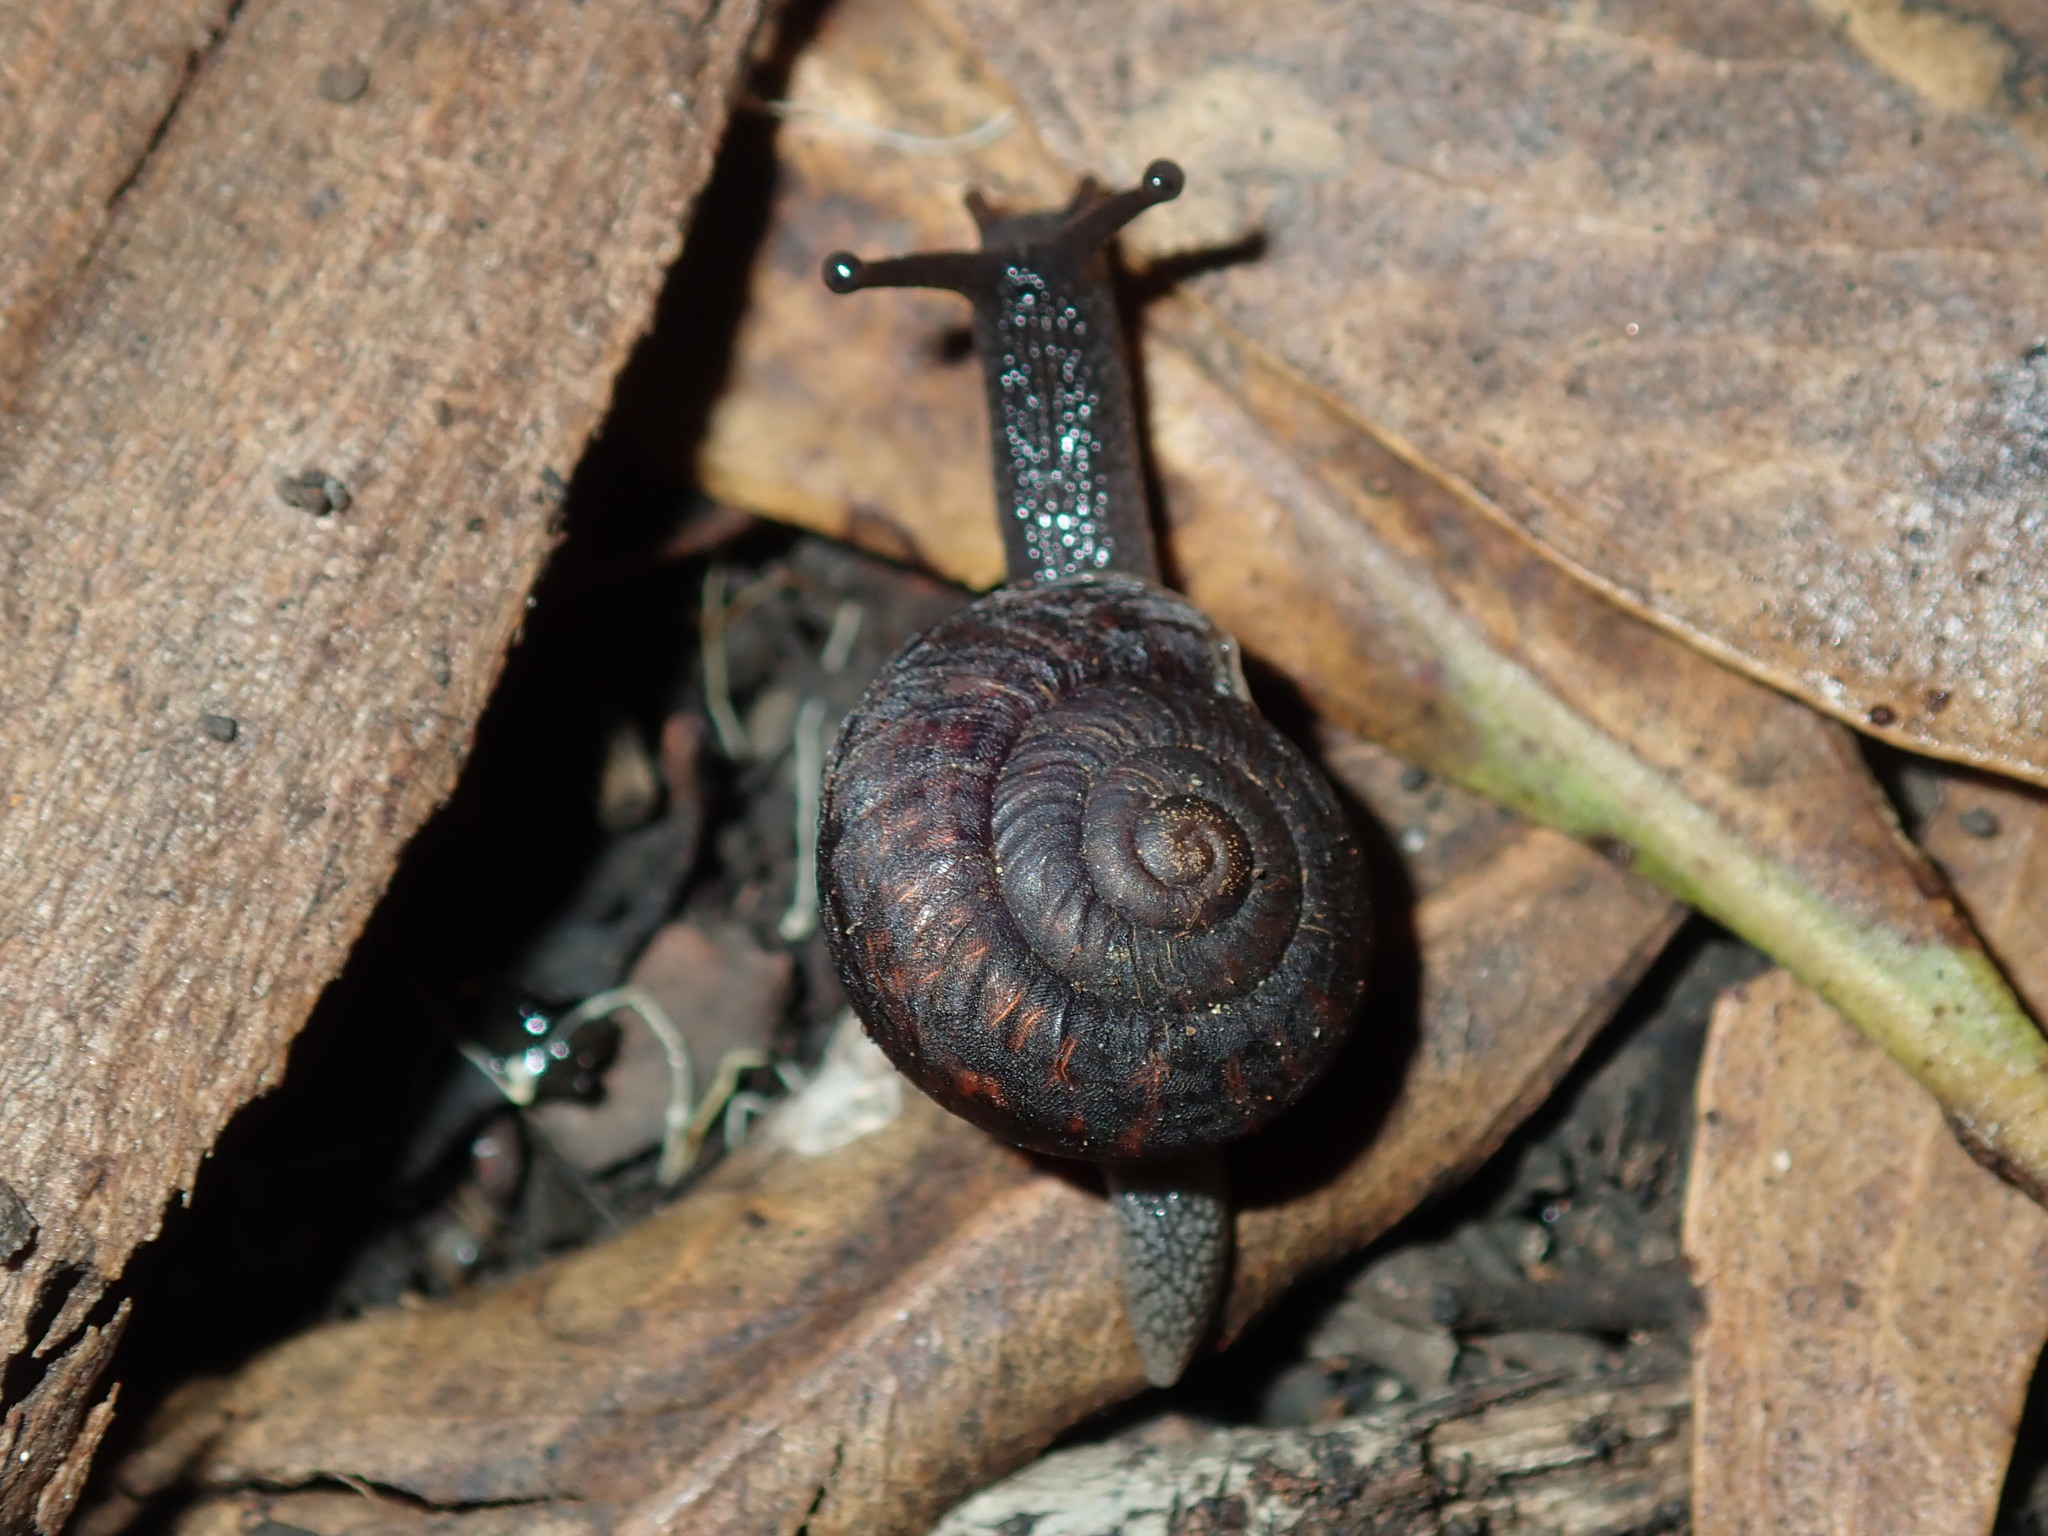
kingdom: Animalia
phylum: Mollusca
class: Gastropoda
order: Stylommatophora
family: Camaenidae
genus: Sauroconcha
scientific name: Sauroconcha sheai
